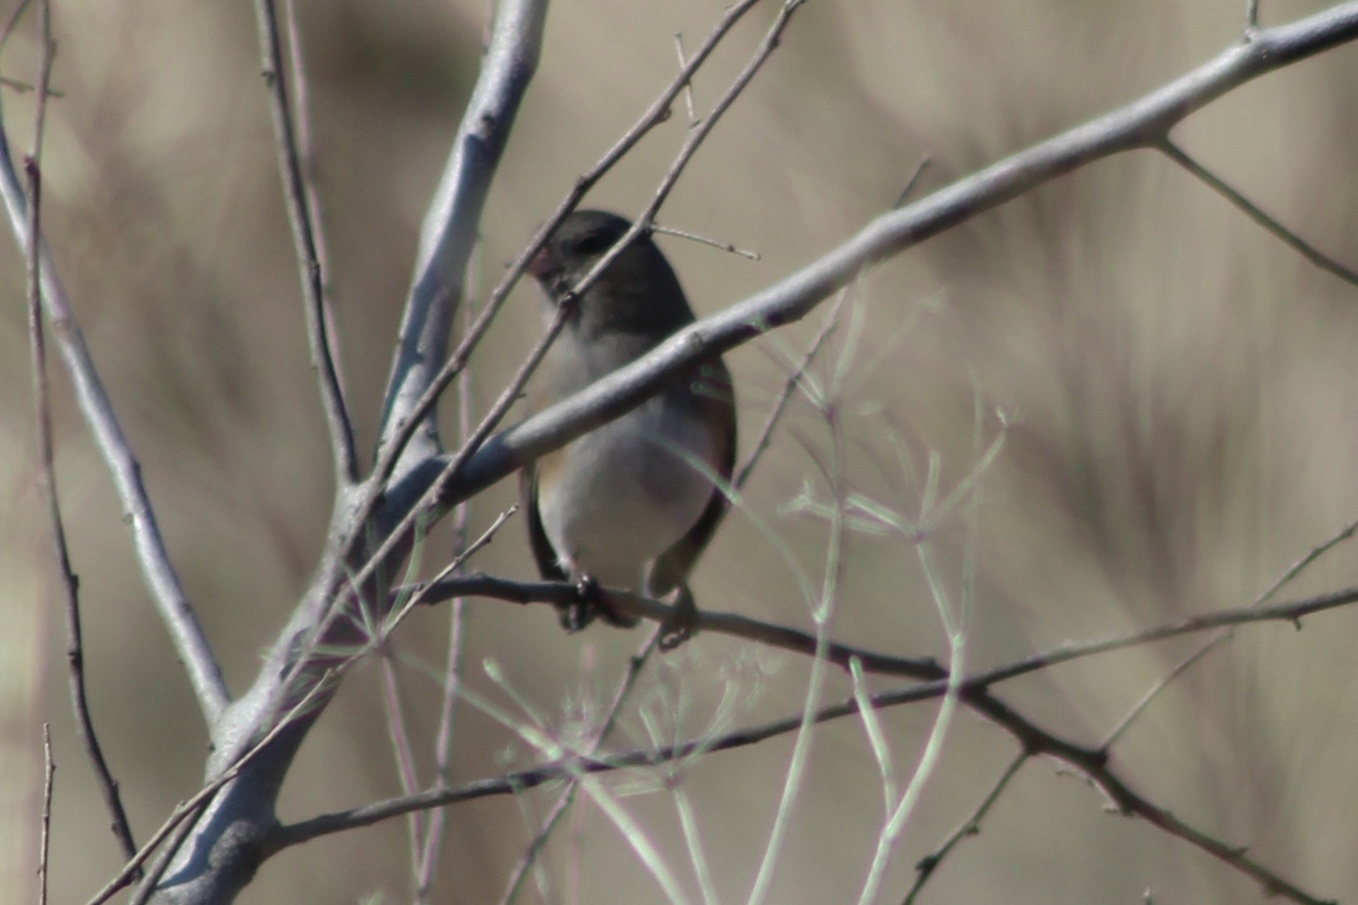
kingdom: Animalia
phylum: Chordata
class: Aves
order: Passeriformes
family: Passerellidae
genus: Junco
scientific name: Junco hyemalis
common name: Dark-eyed junco
